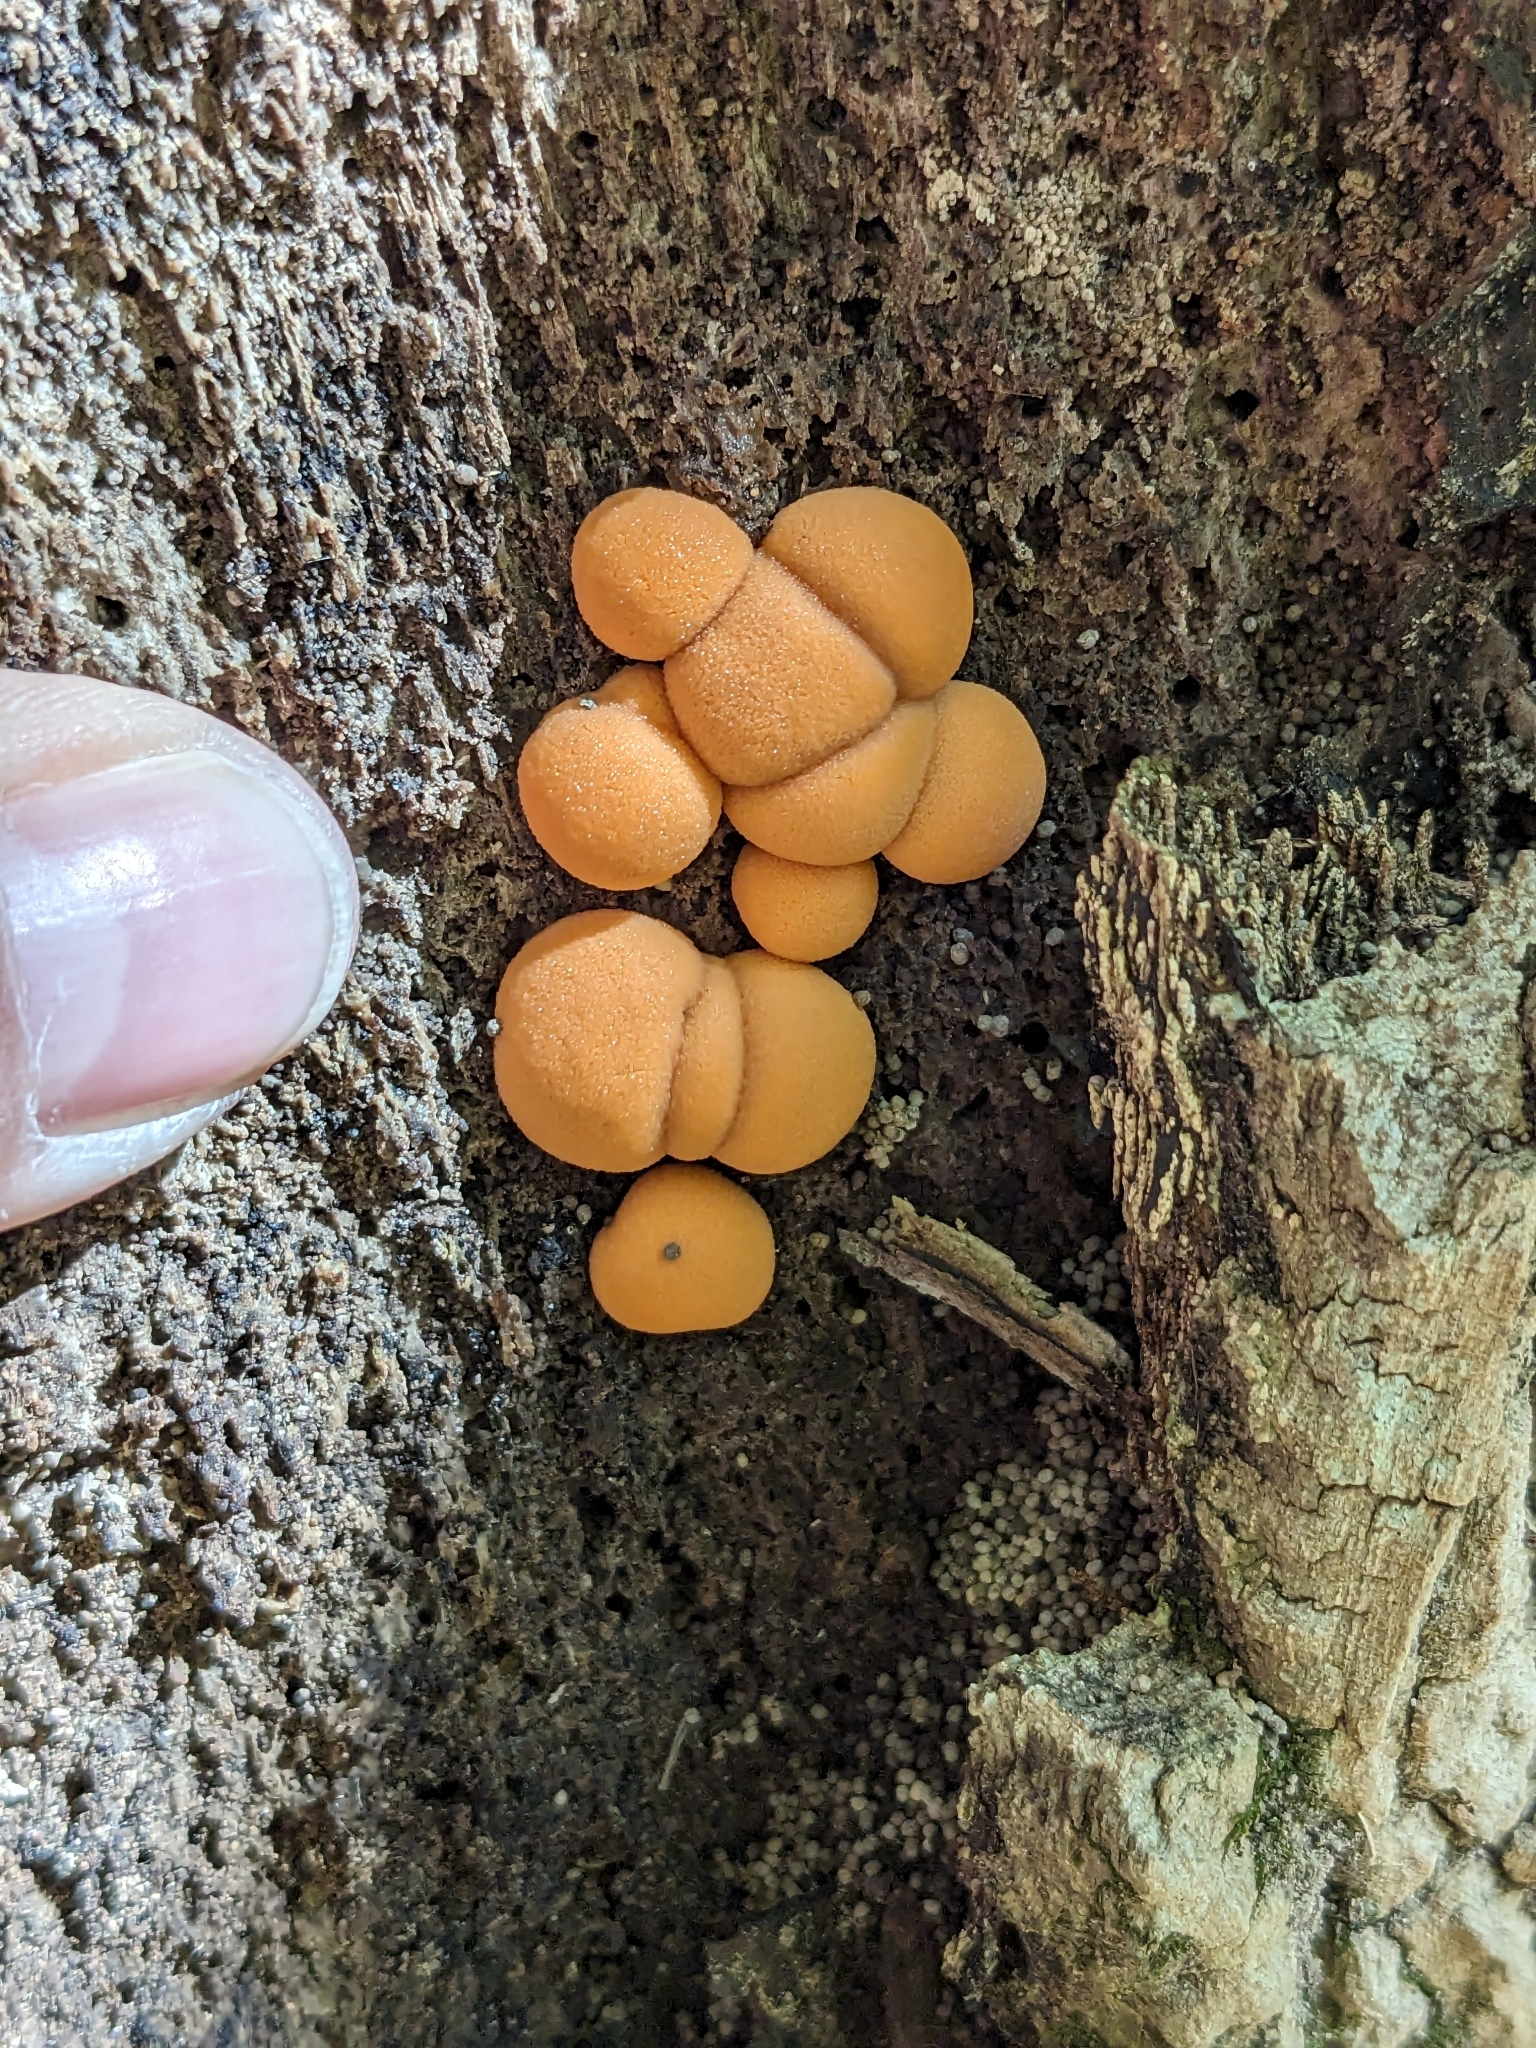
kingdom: Protozoa
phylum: Mycetozoa
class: Myxomycetes
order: Cribrariales
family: Tubiferaceae
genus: Lycogala
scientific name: Lycogala epidendrum
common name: Wolf's milk
